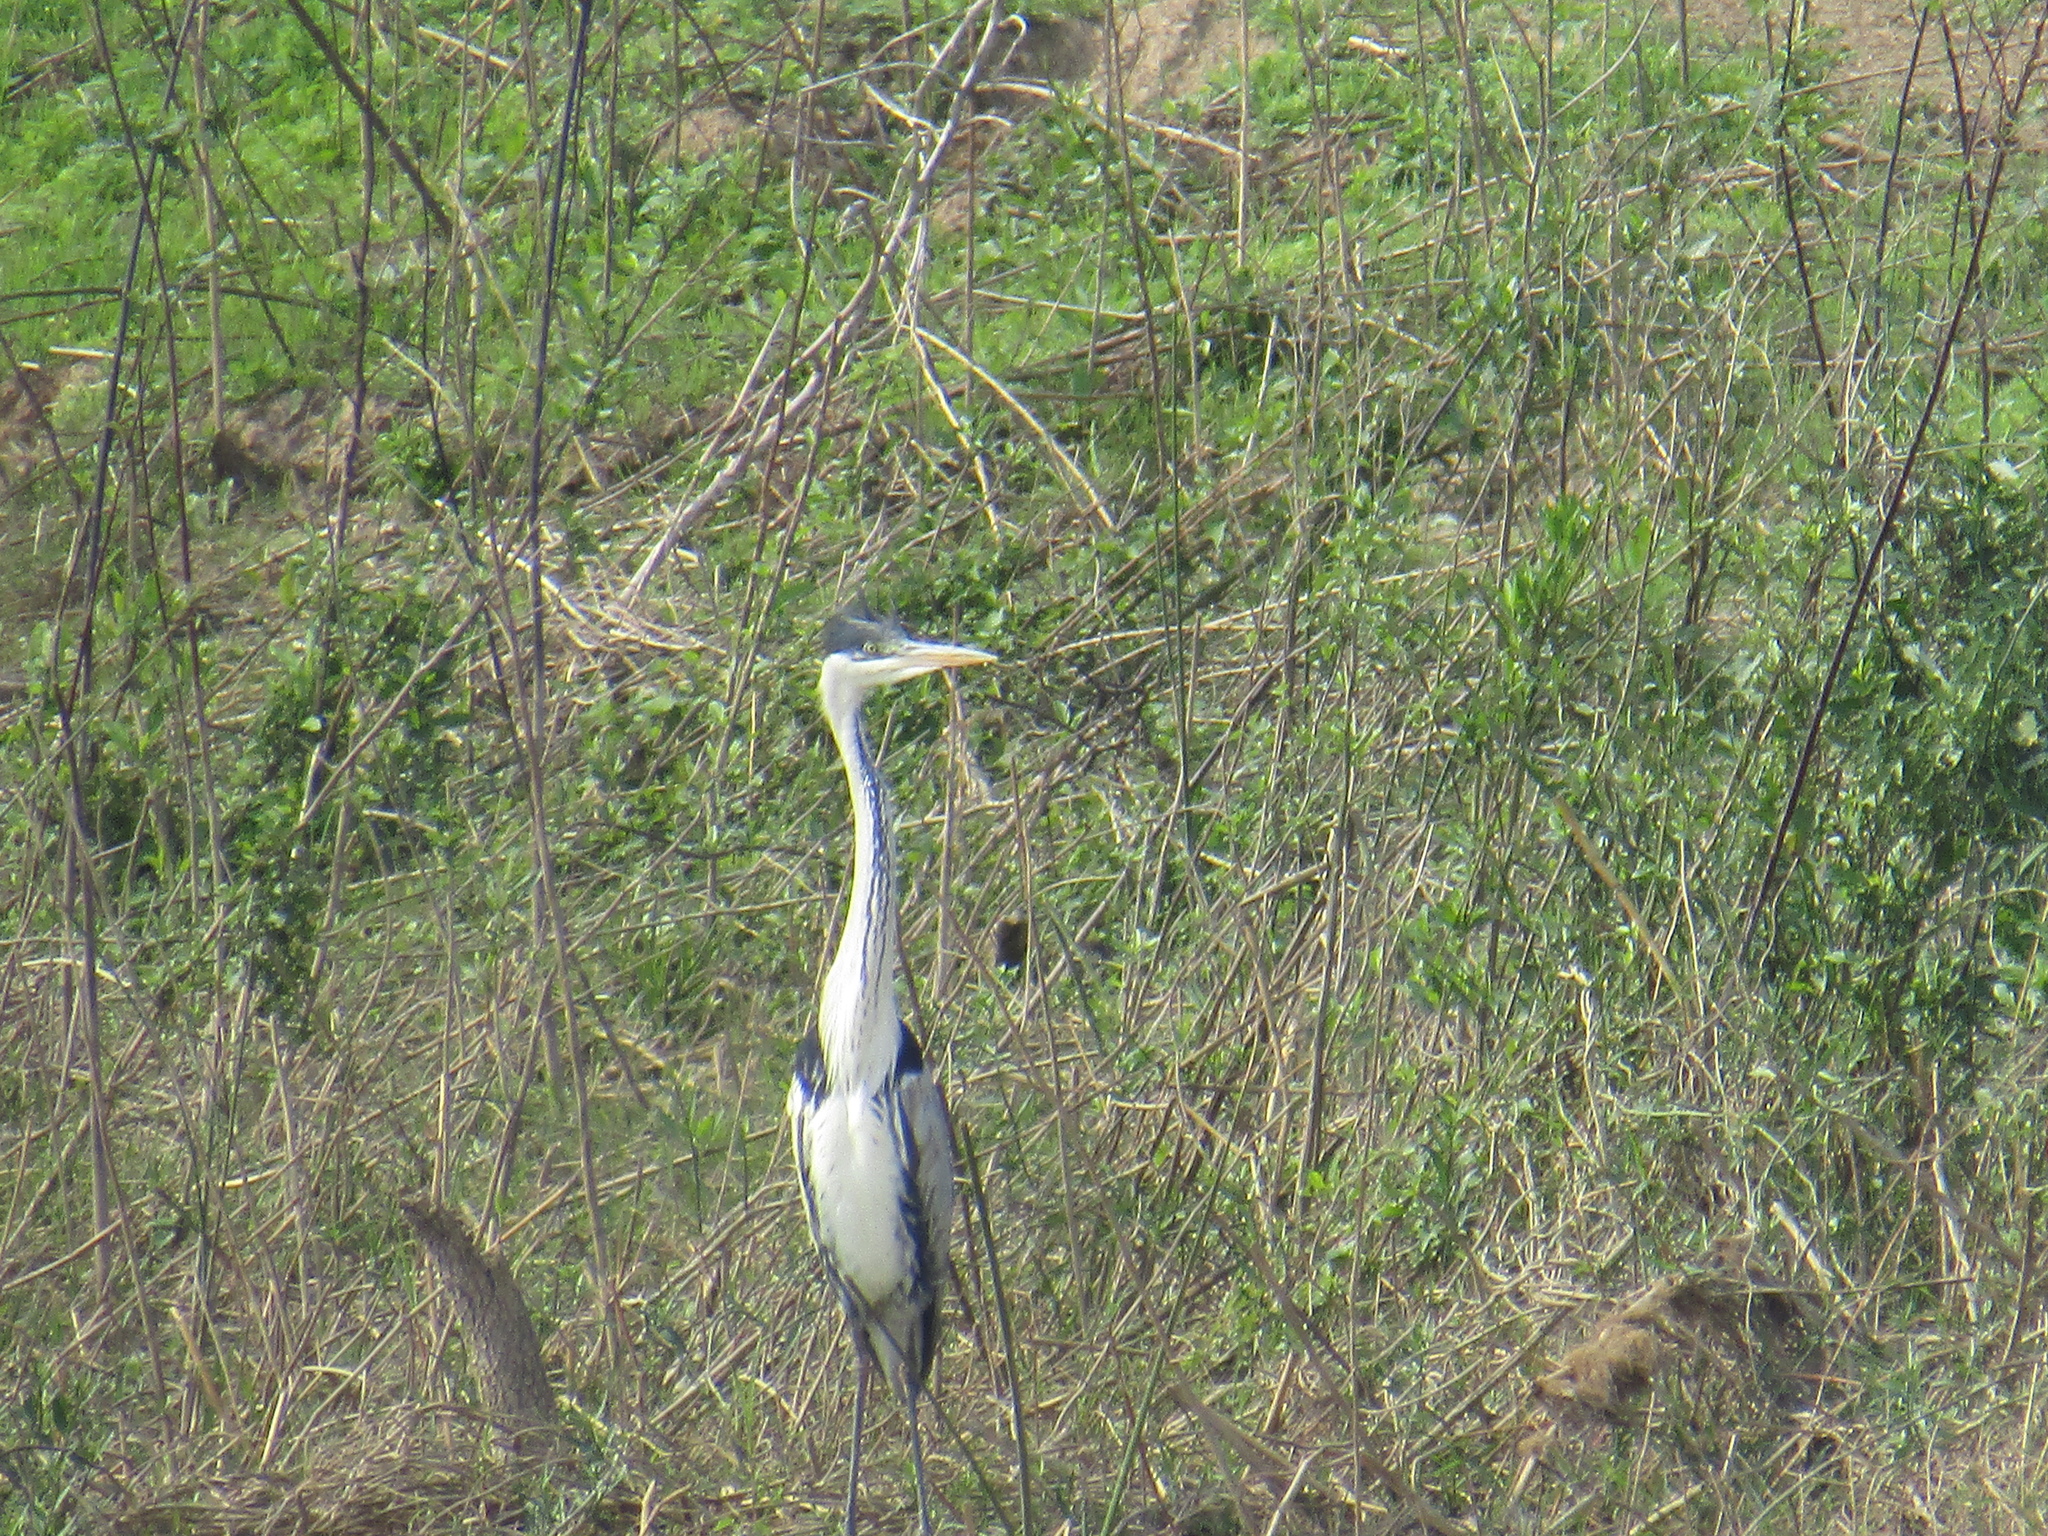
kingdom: Animalia
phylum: Chordata
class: Aves
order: Pelecaniformes
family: Ardeidae
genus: Ardea
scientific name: Ardea cocoi
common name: Cocoi heron
